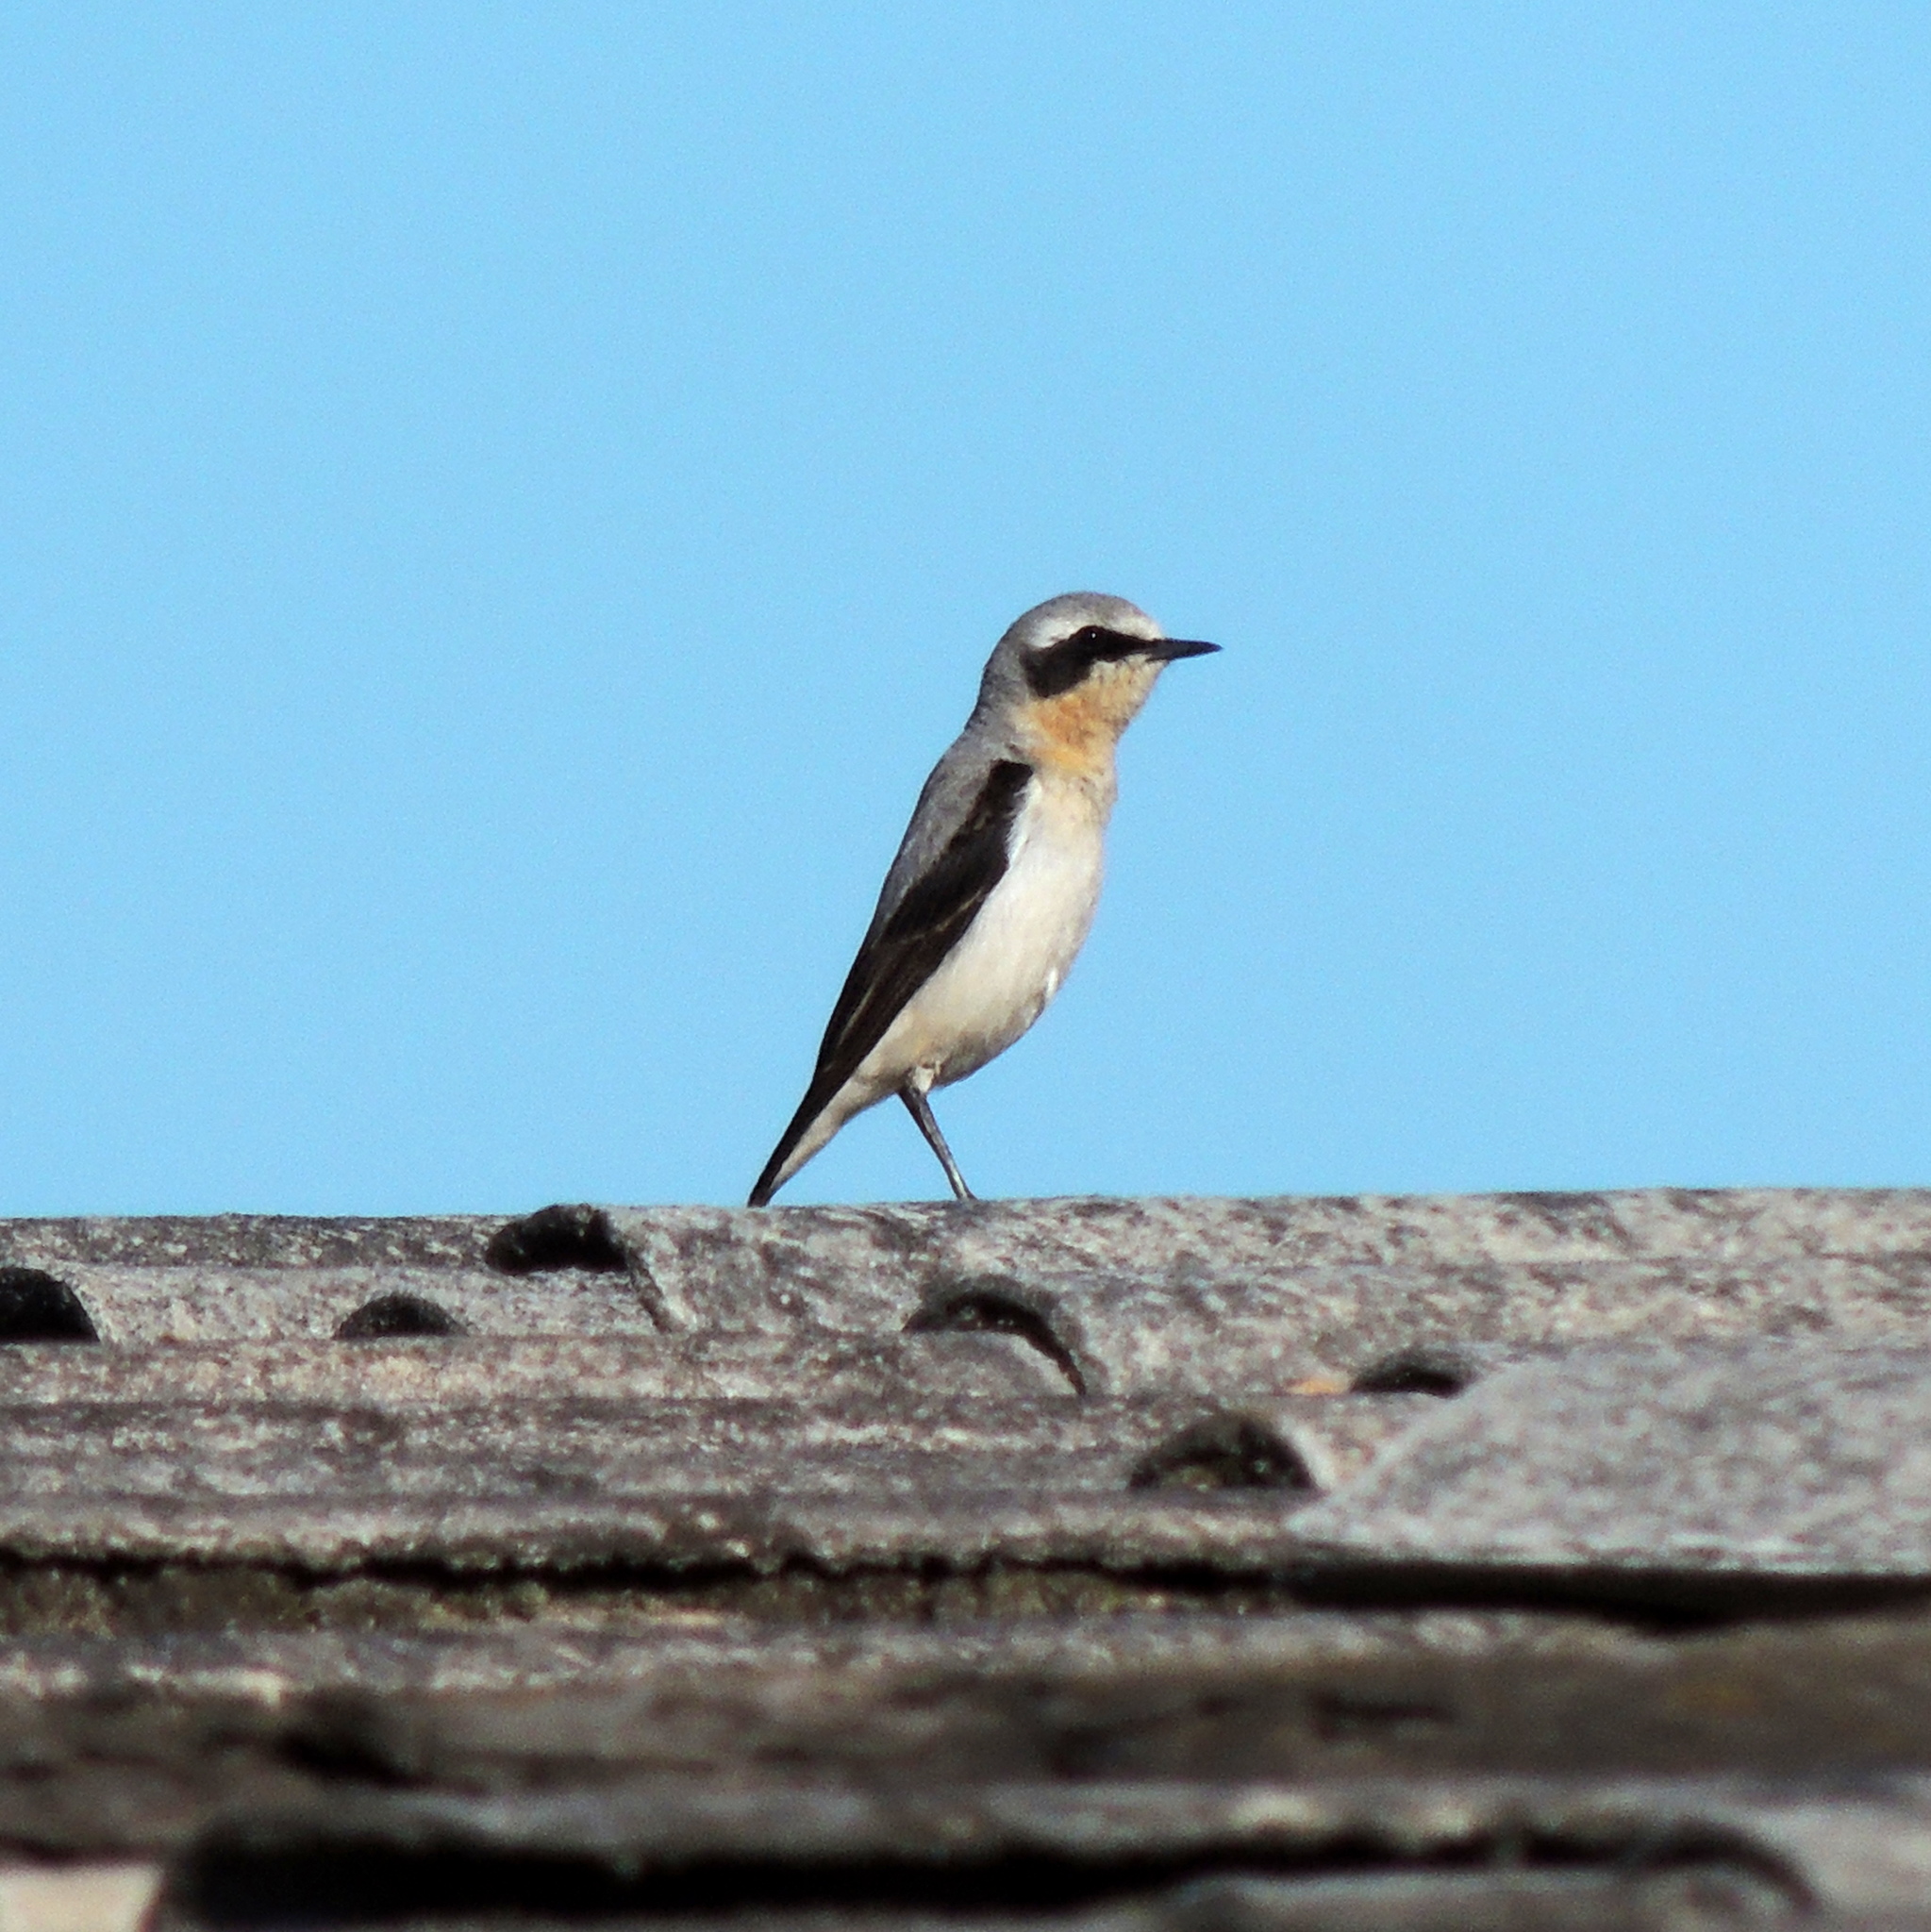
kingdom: Animalia
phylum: Chordata
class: Aves
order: Passeriformes
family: Muscicapidae
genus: Oenanthe
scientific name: Oenanthe oenanthe
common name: Northern wheatear
